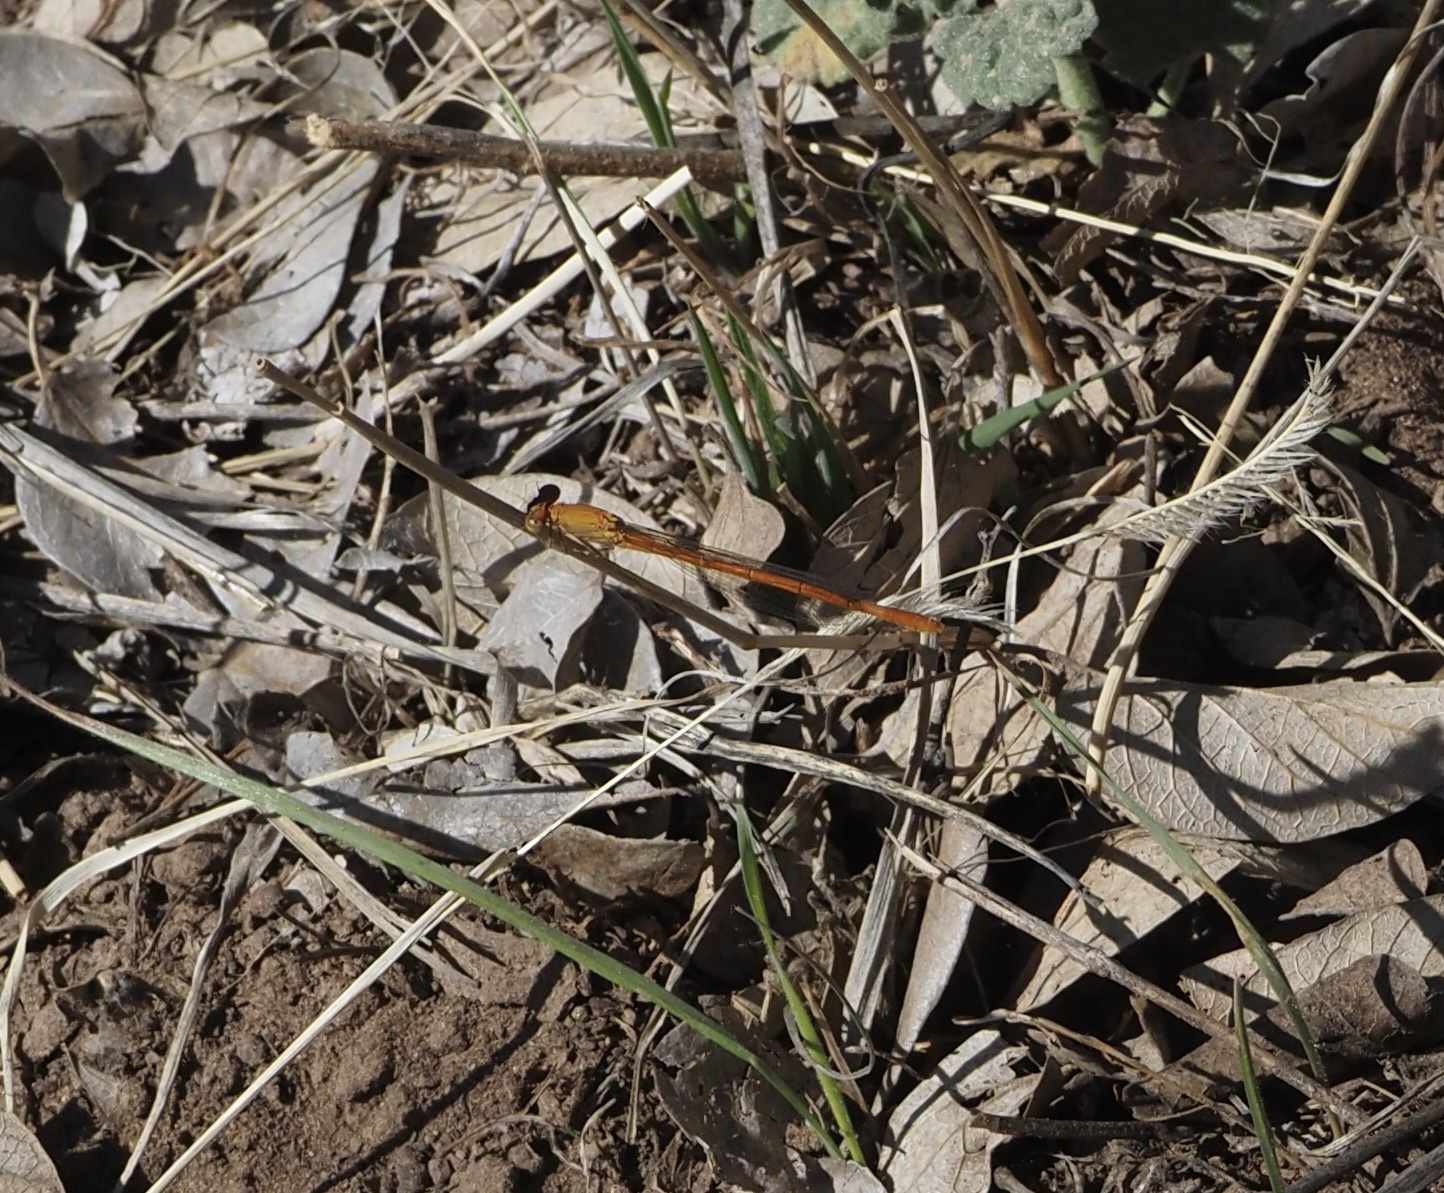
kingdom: Animalia
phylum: Arthropoda
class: Insecta
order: Odonata
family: Coenagrionidae
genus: Hesperagrion
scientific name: Hesperagrion heterodoxum
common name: Painted damsel
